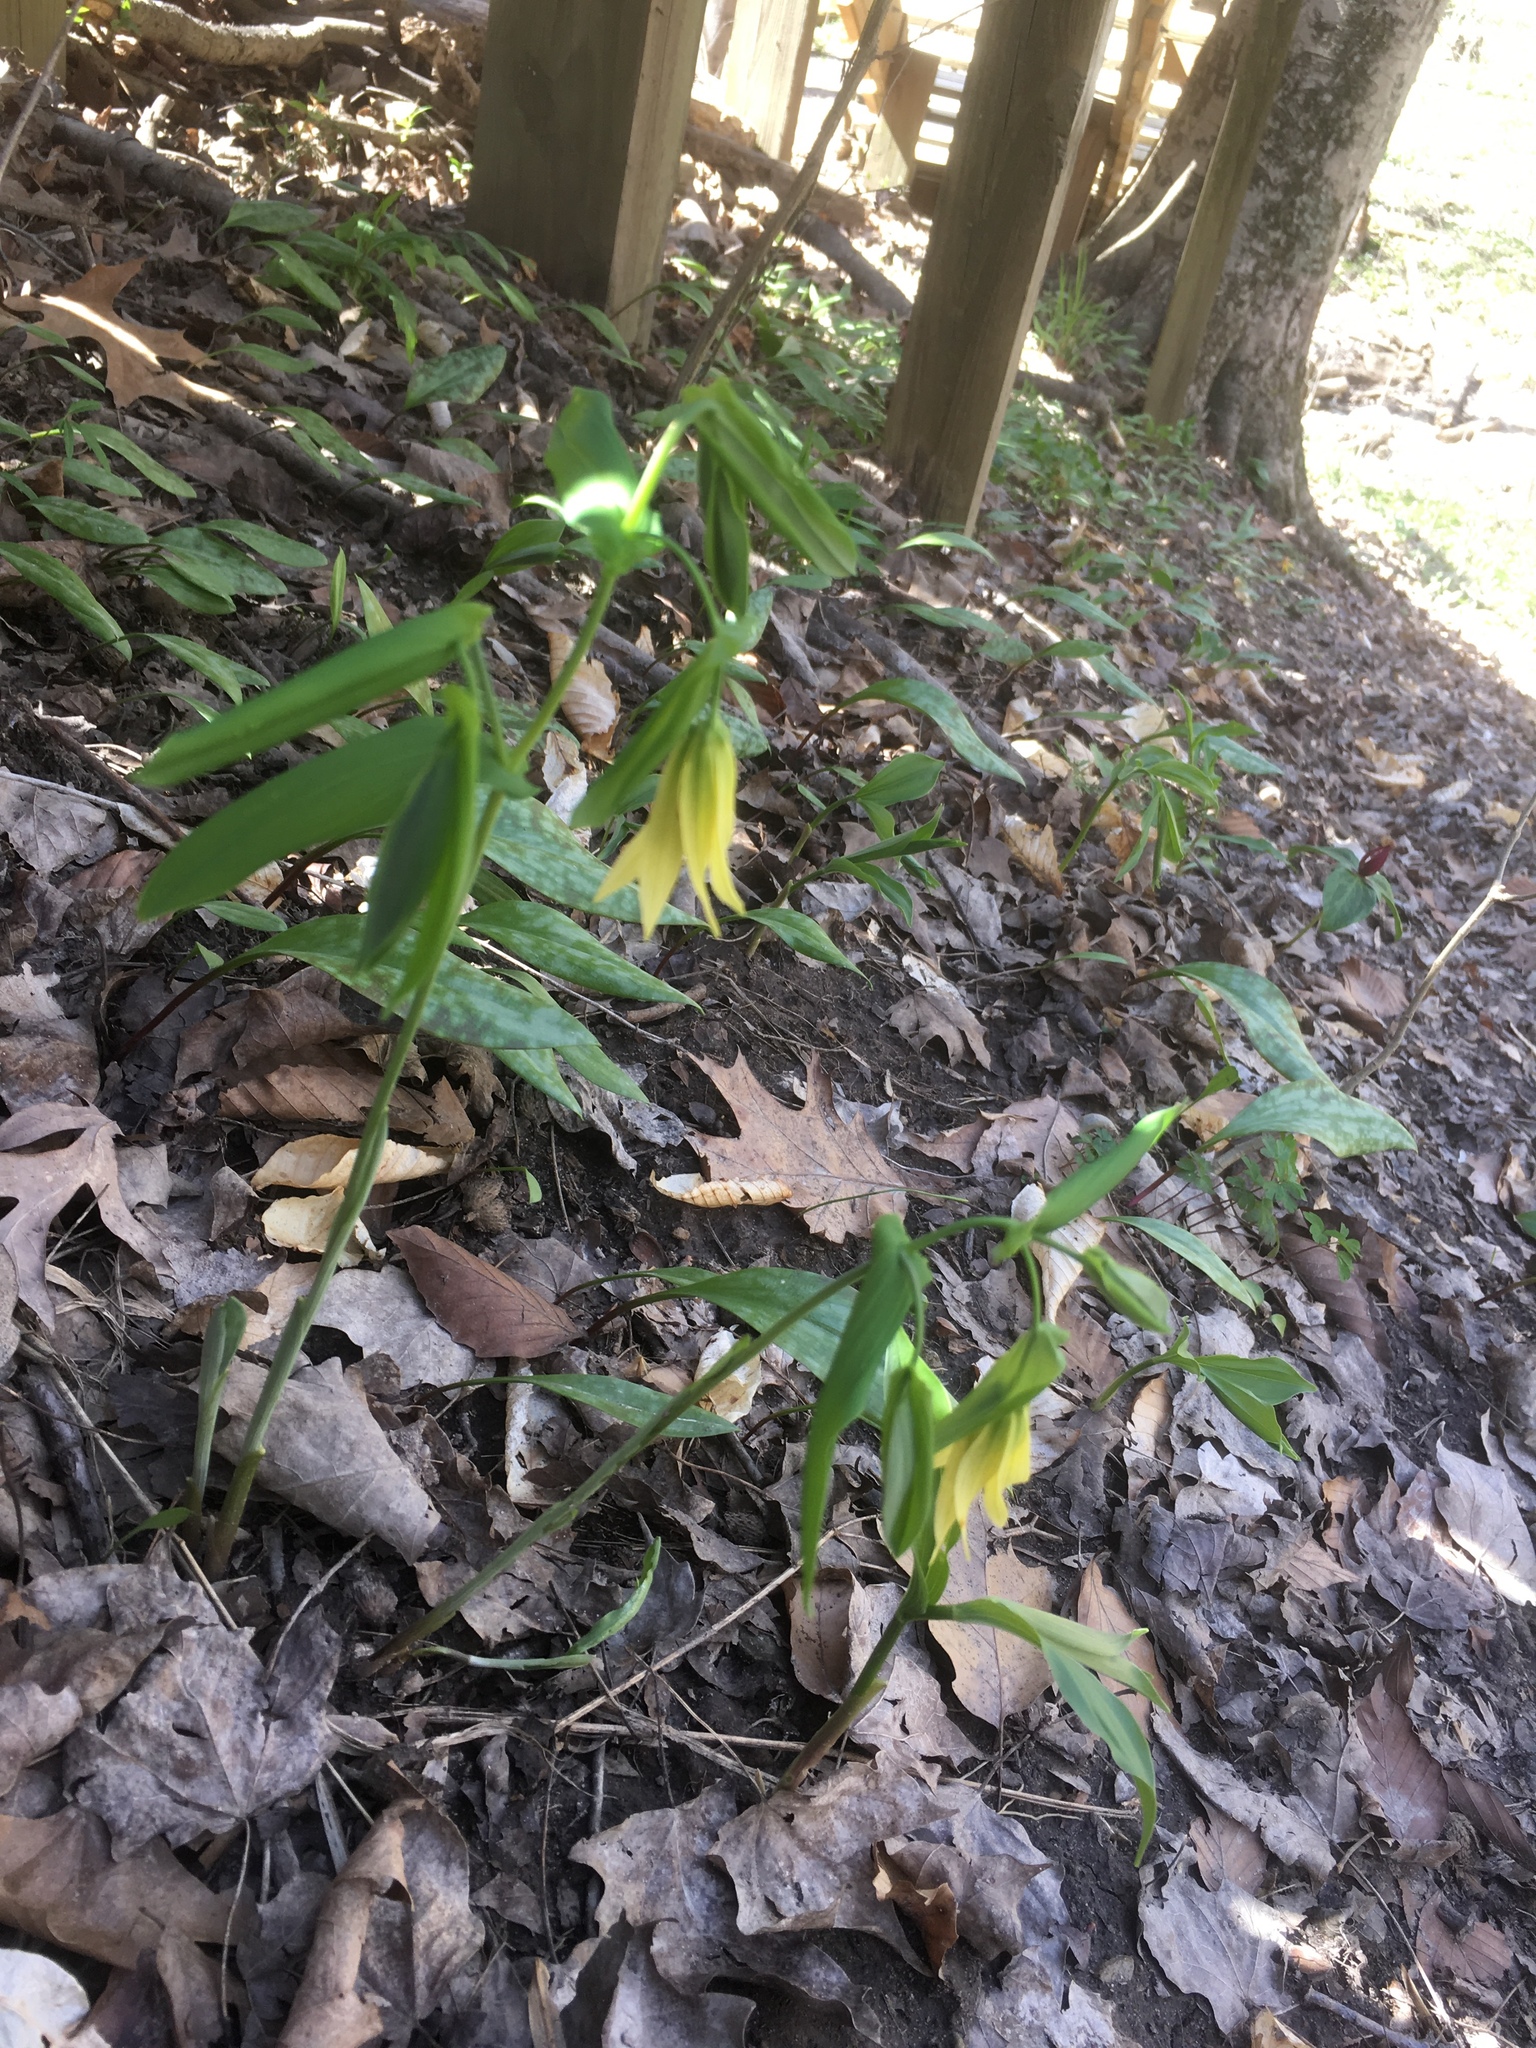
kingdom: Plantae
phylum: Tracheophyta
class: Liliopsida
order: Liliales
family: Colchicaceae
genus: Uvularia
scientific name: Uvularia grandiflora
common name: Bellwort
